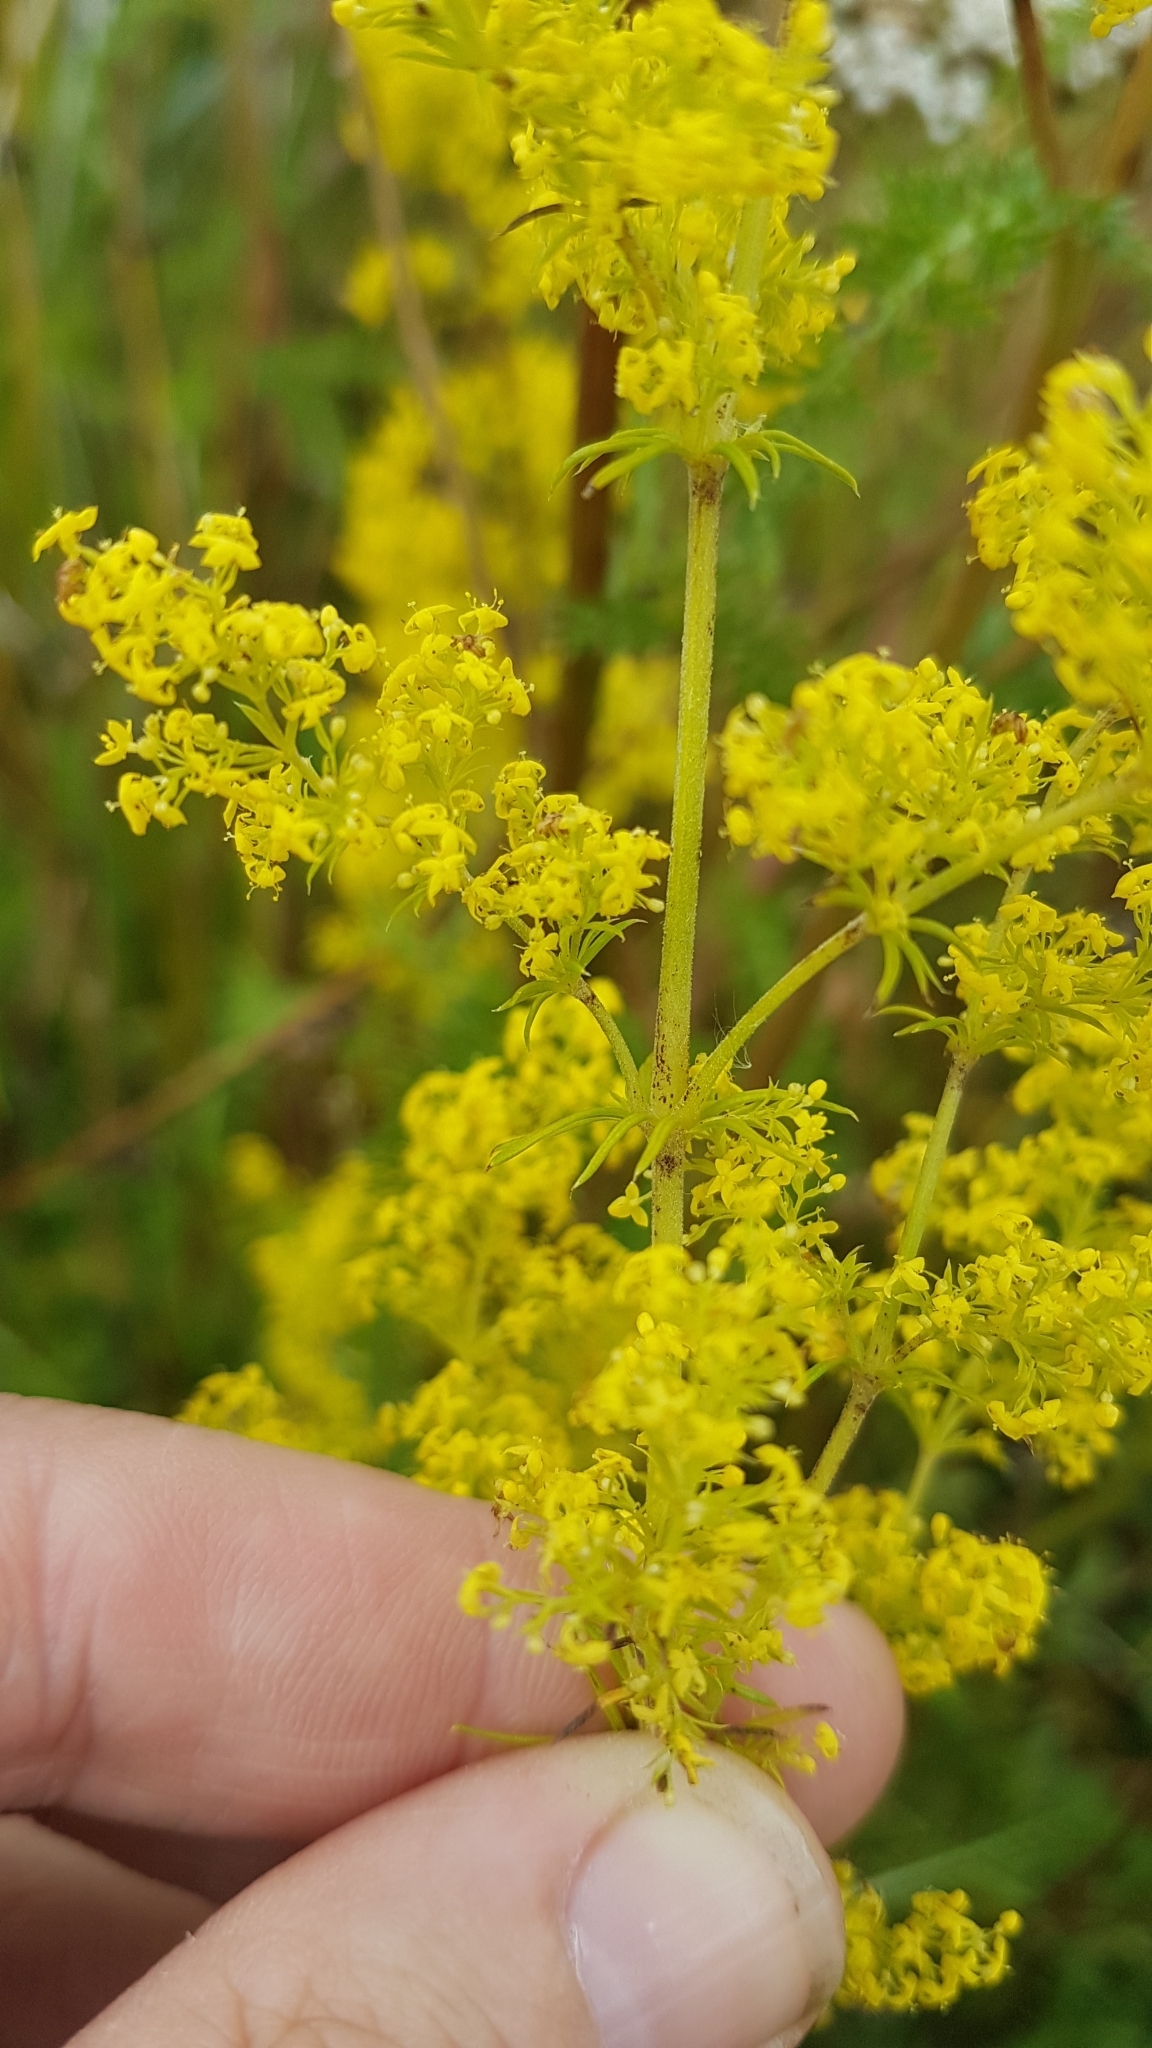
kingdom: Plantae
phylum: Tracheophyta
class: Magnoliopsida
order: Gentianales
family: Rubiaceae
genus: Galium
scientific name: Galium verum
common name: Lady's bedstraw
